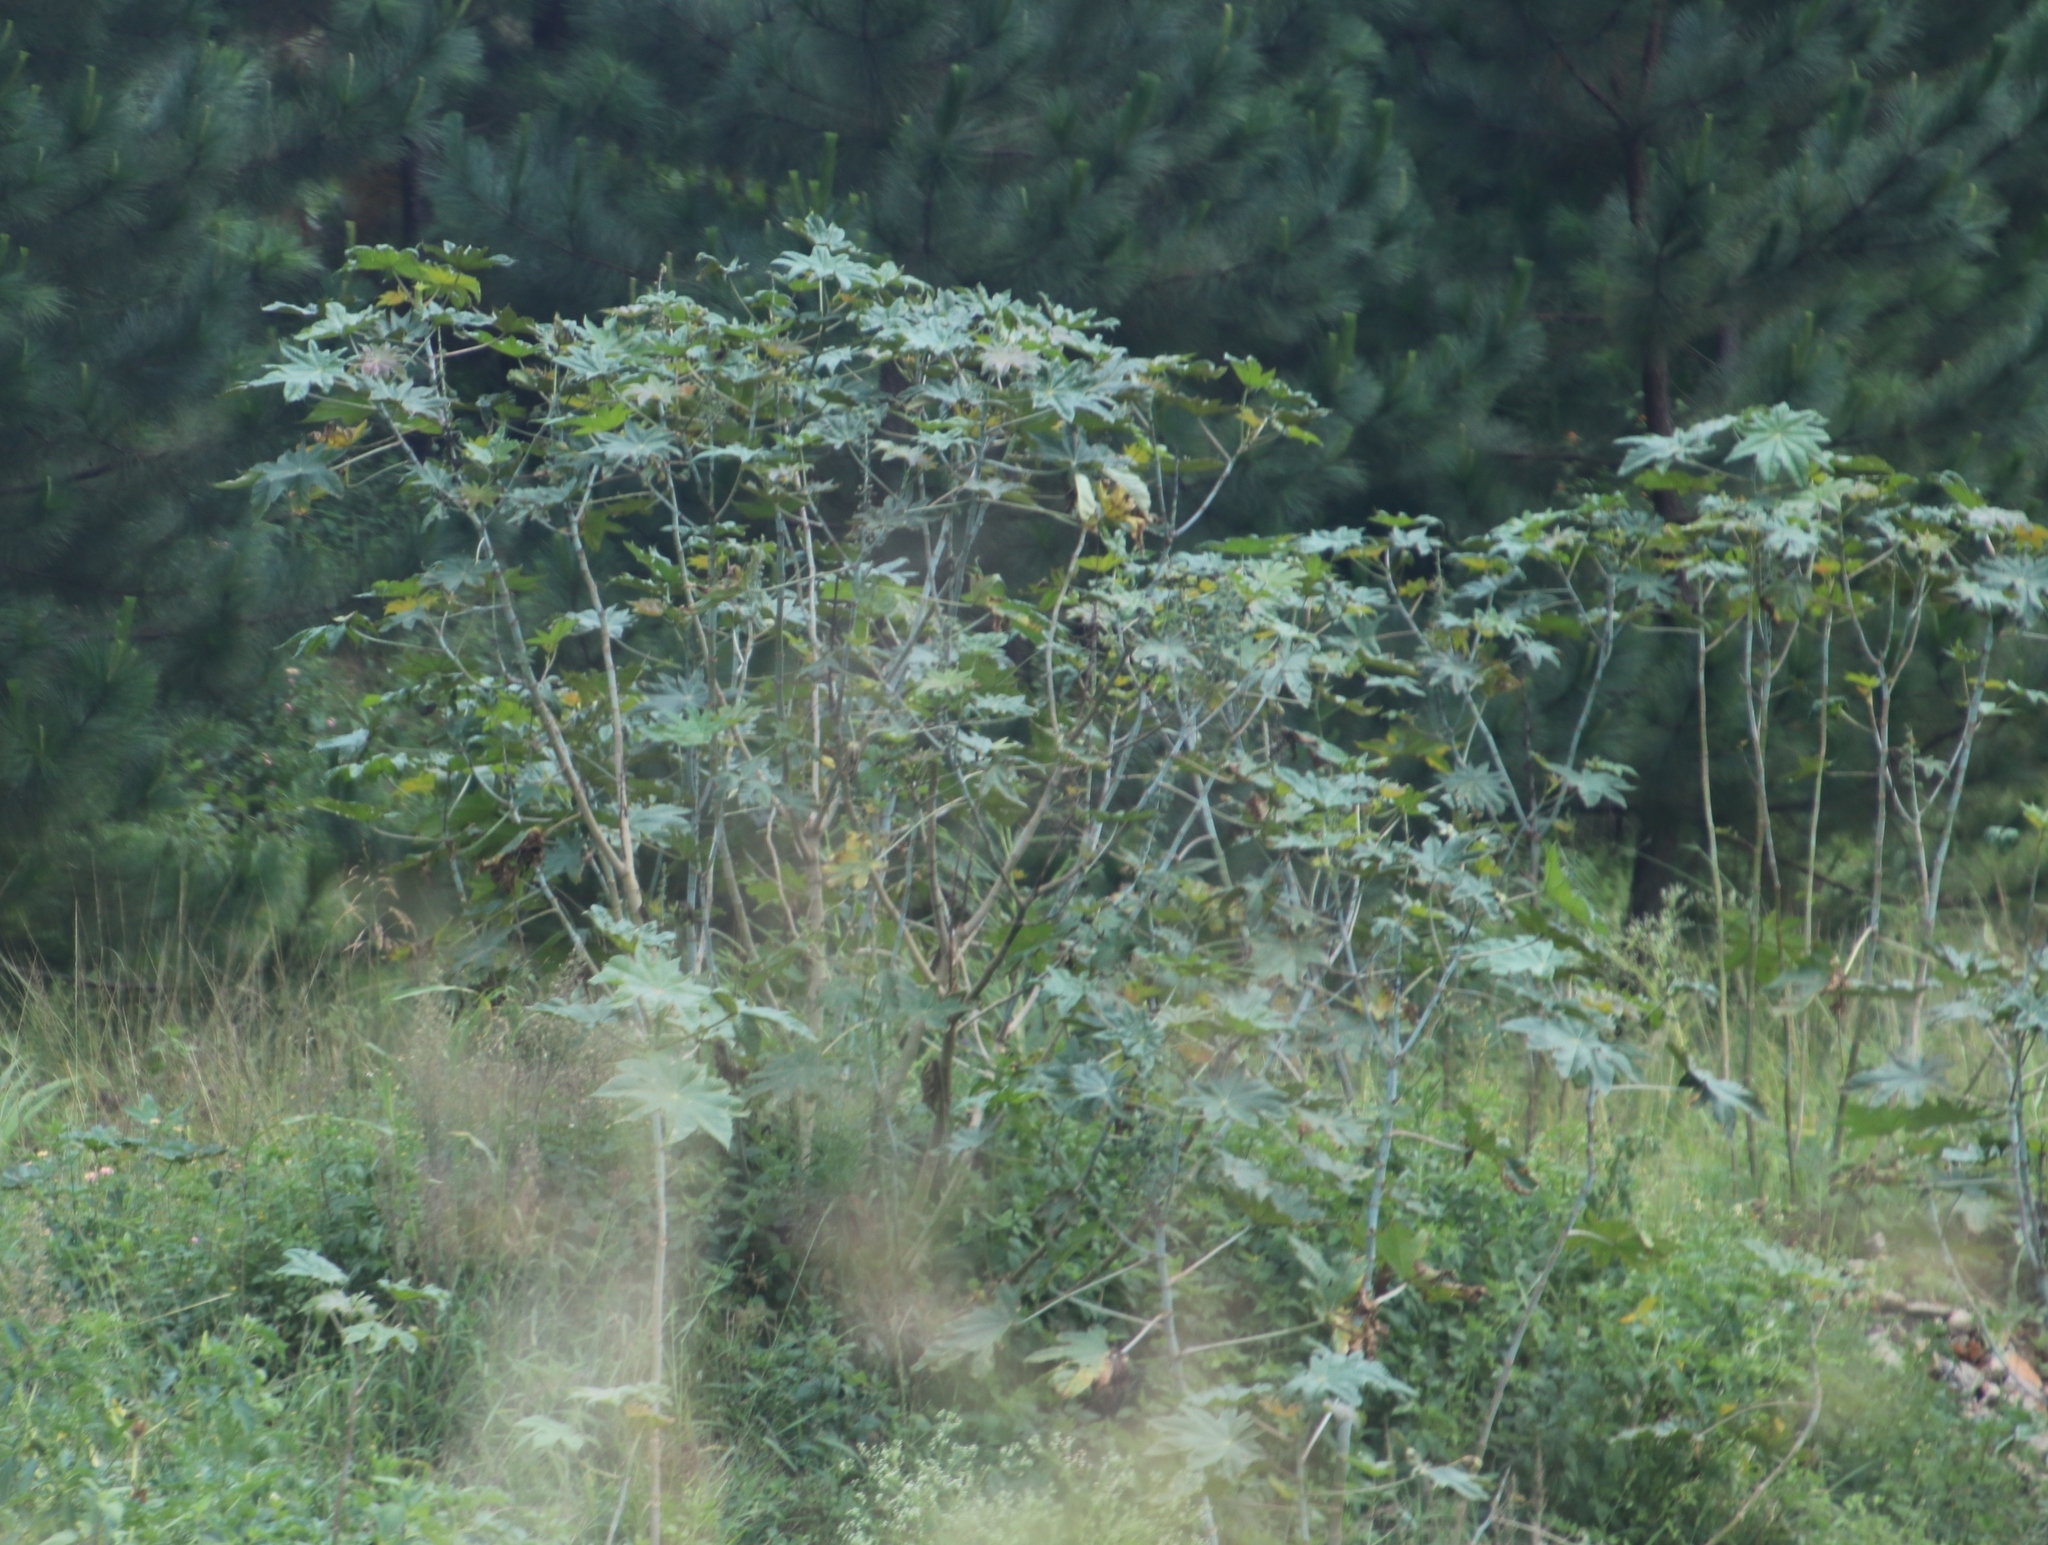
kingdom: Plantae
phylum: Tracheophyta
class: Magnoliopsida
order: Malpighiales
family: Euphorbiaceae
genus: Ricinus
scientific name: Ricinus communis
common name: Castor-oil-plant
